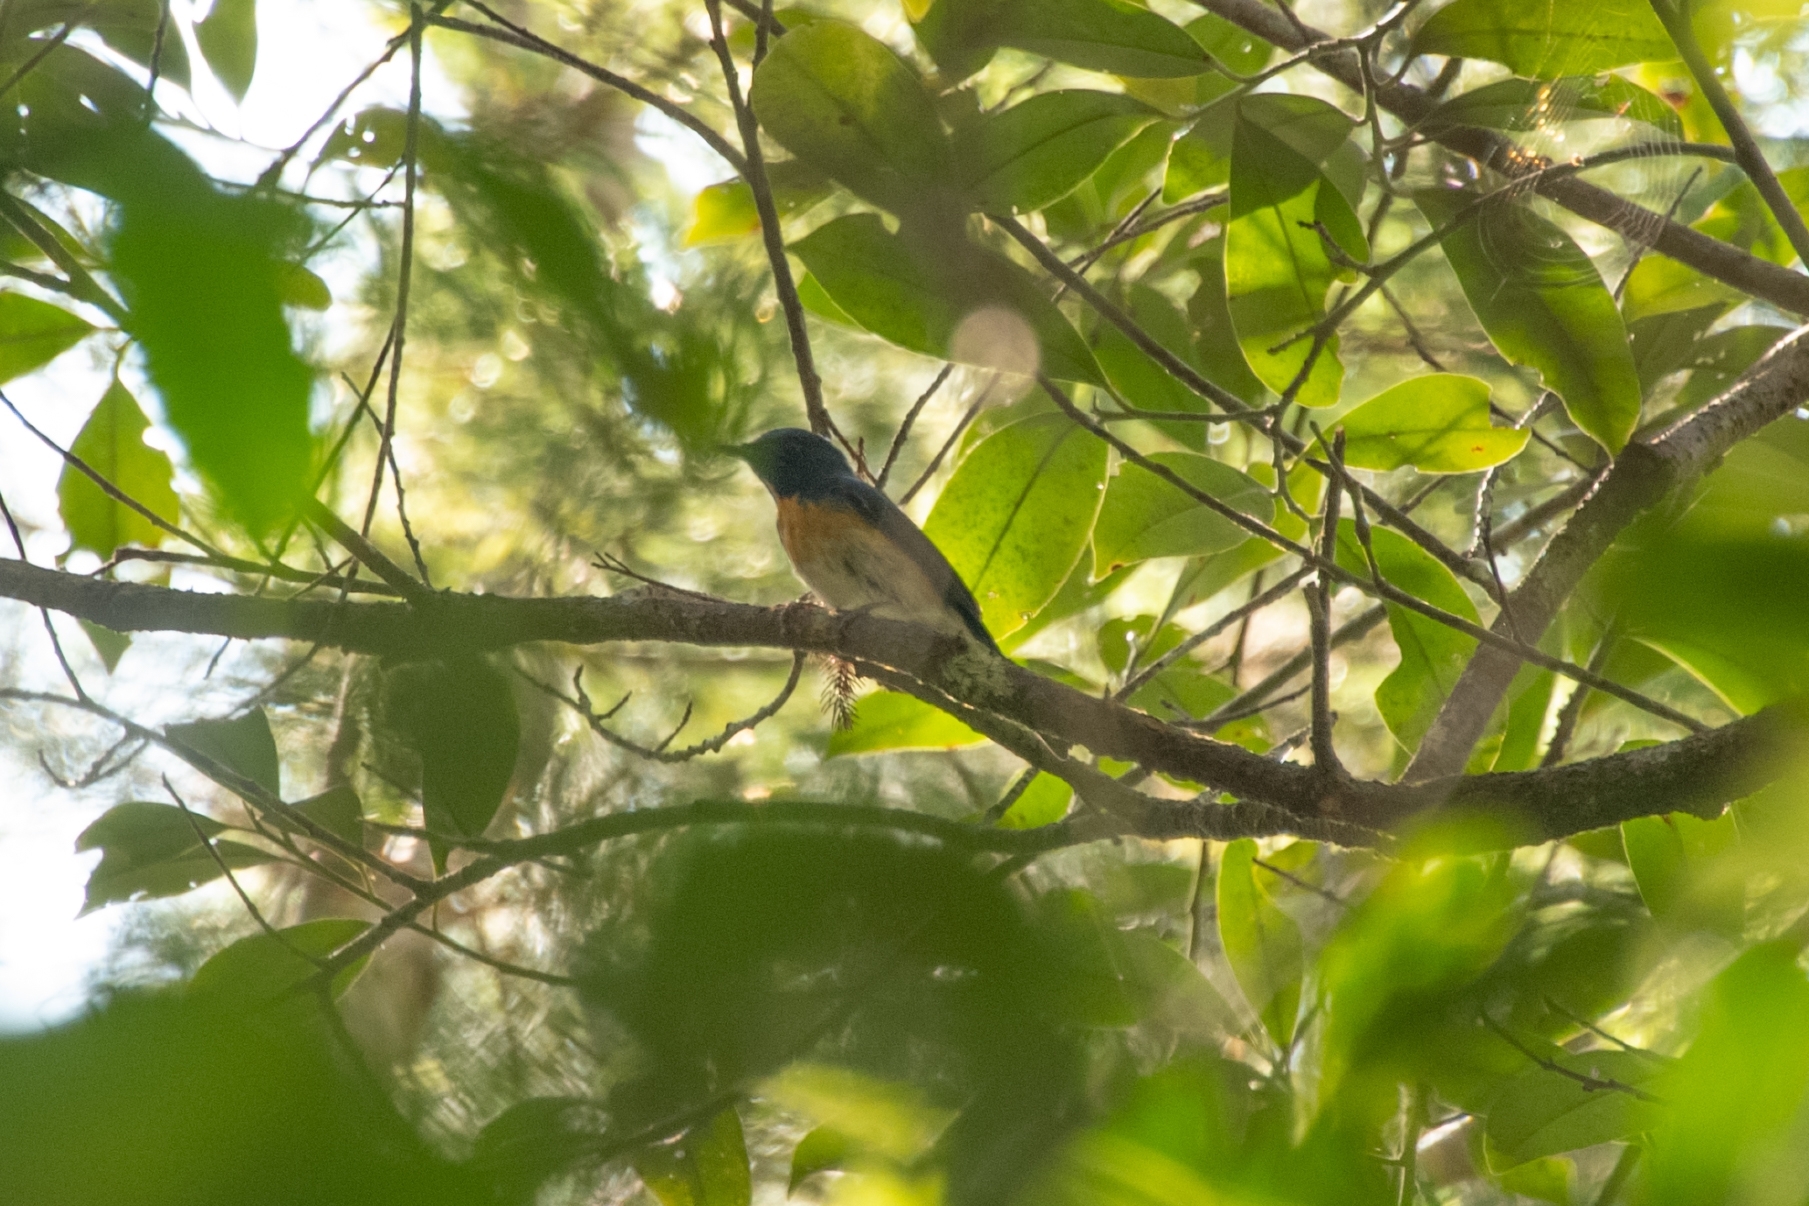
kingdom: Animalia
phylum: Chordata
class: Aves
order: Passeriformes
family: Muscicapidae
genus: Cyornis
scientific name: Cyornis tickelliae
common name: Tickell's blue flycatcher
